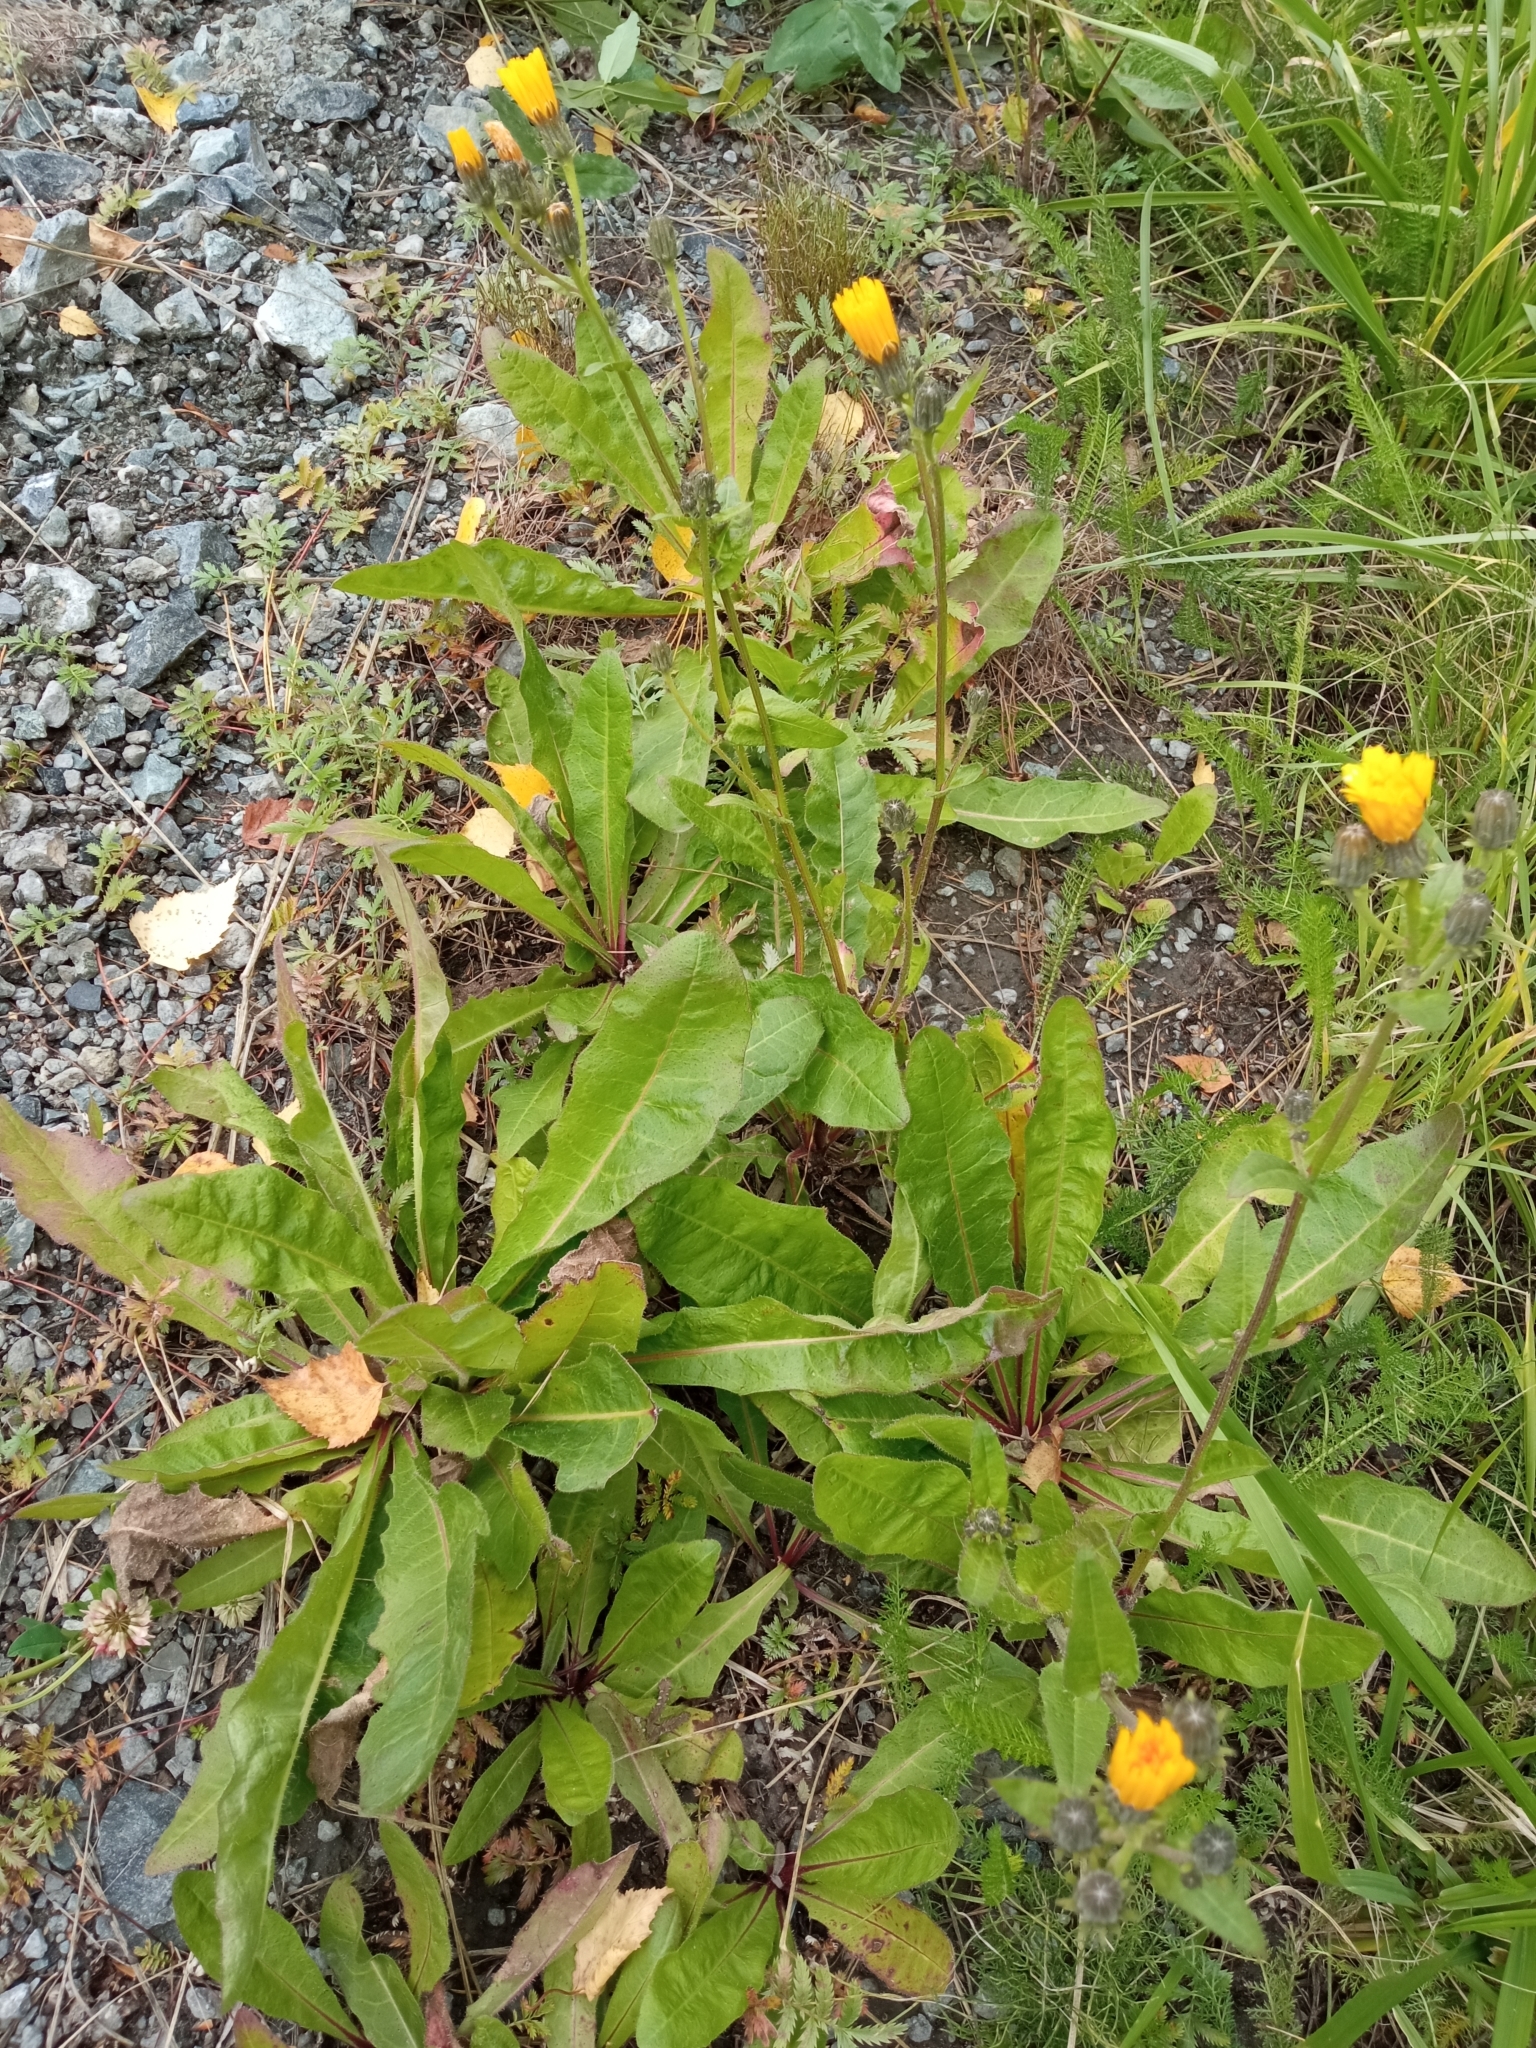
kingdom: Plantae
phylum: Tracheophyta
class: Magnoliopsida
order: Asterales
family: Asteraceae
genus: Picris
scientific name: Picris hieracioides
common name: Hawkweed oxtongue
